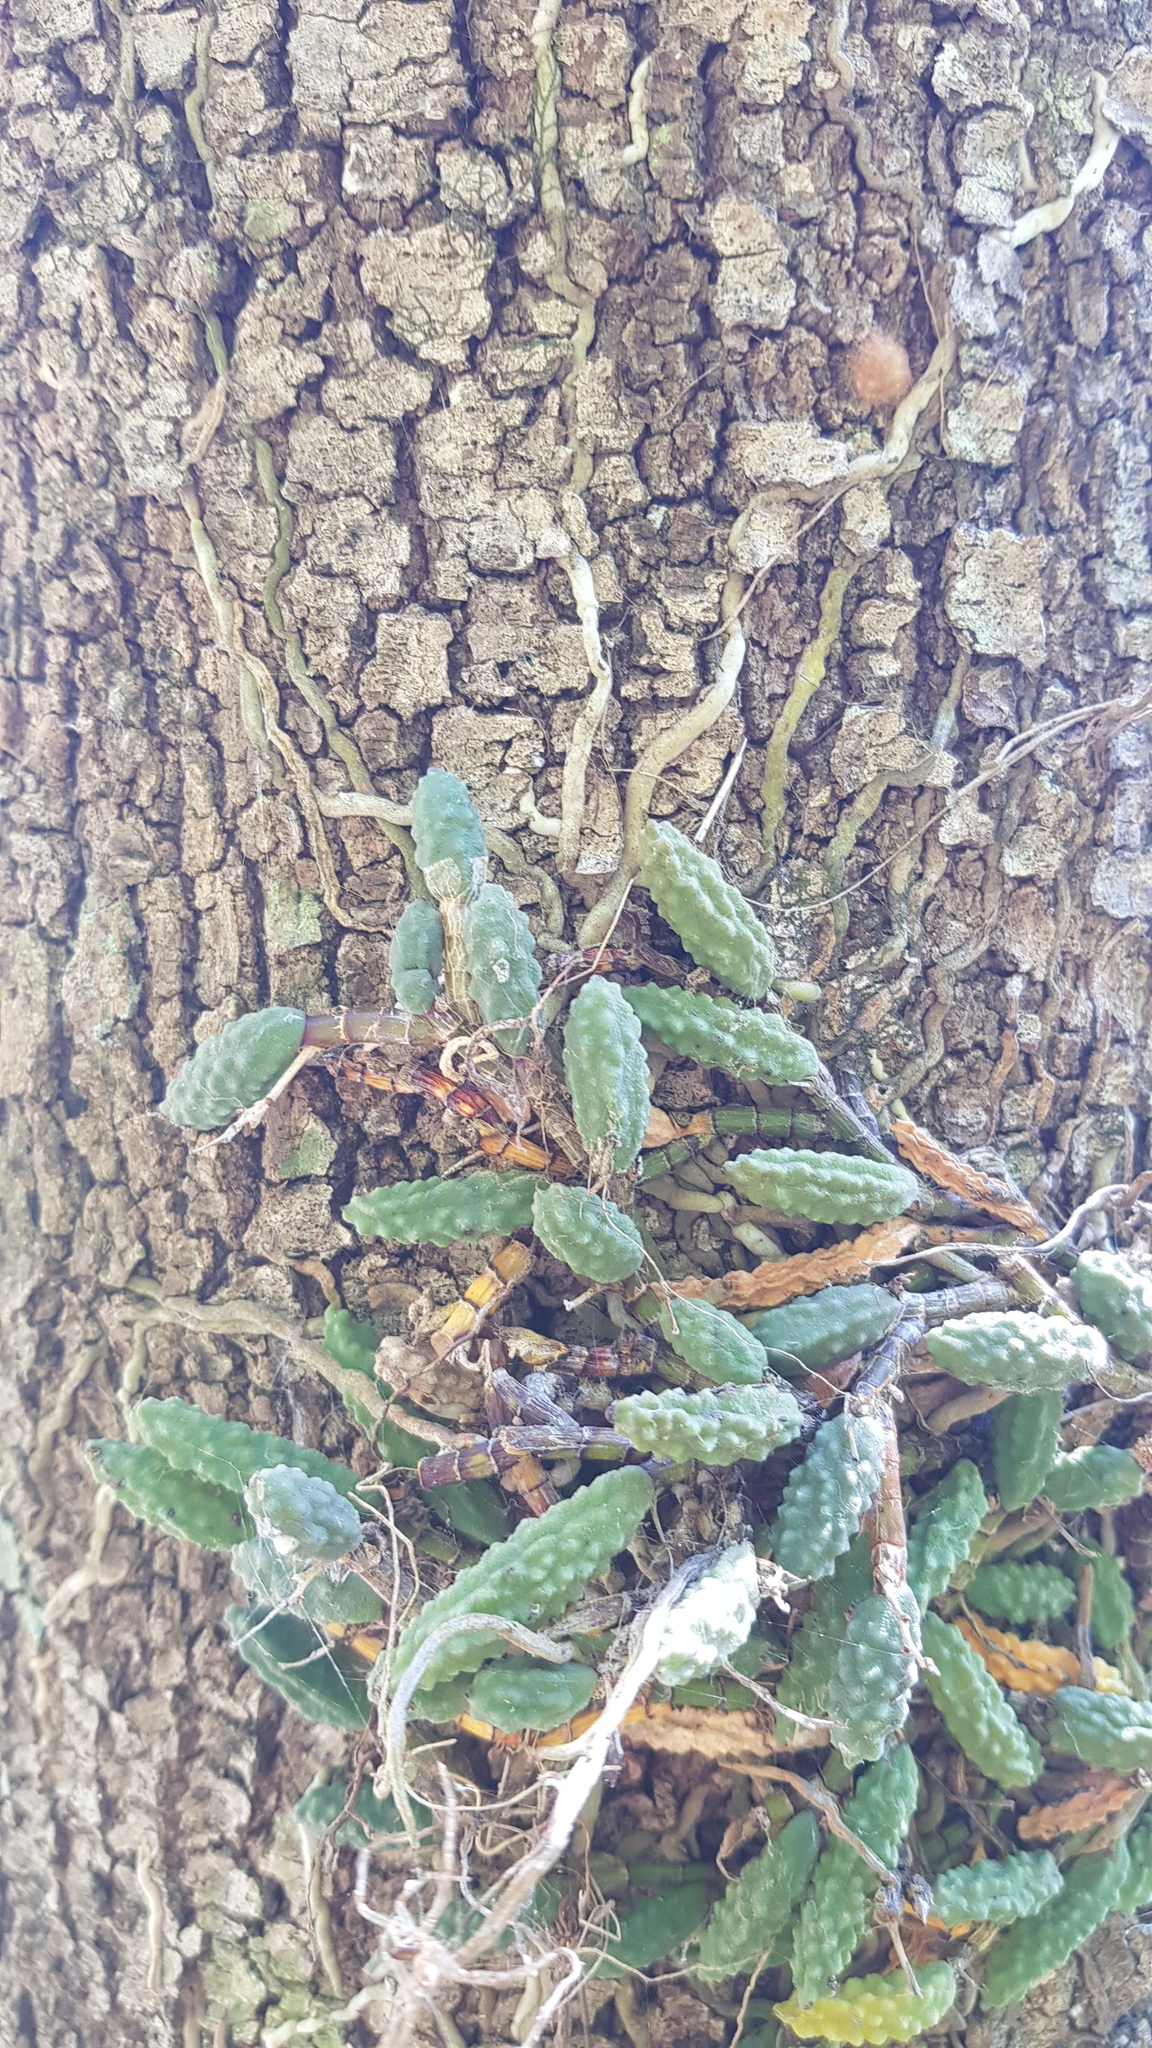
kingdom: Plantae
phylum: Tracheophyta
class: Liliopsida
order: Asparagales
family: Orchidaceae
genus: Dendrobium
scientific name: Dendrobium cucumerinum
